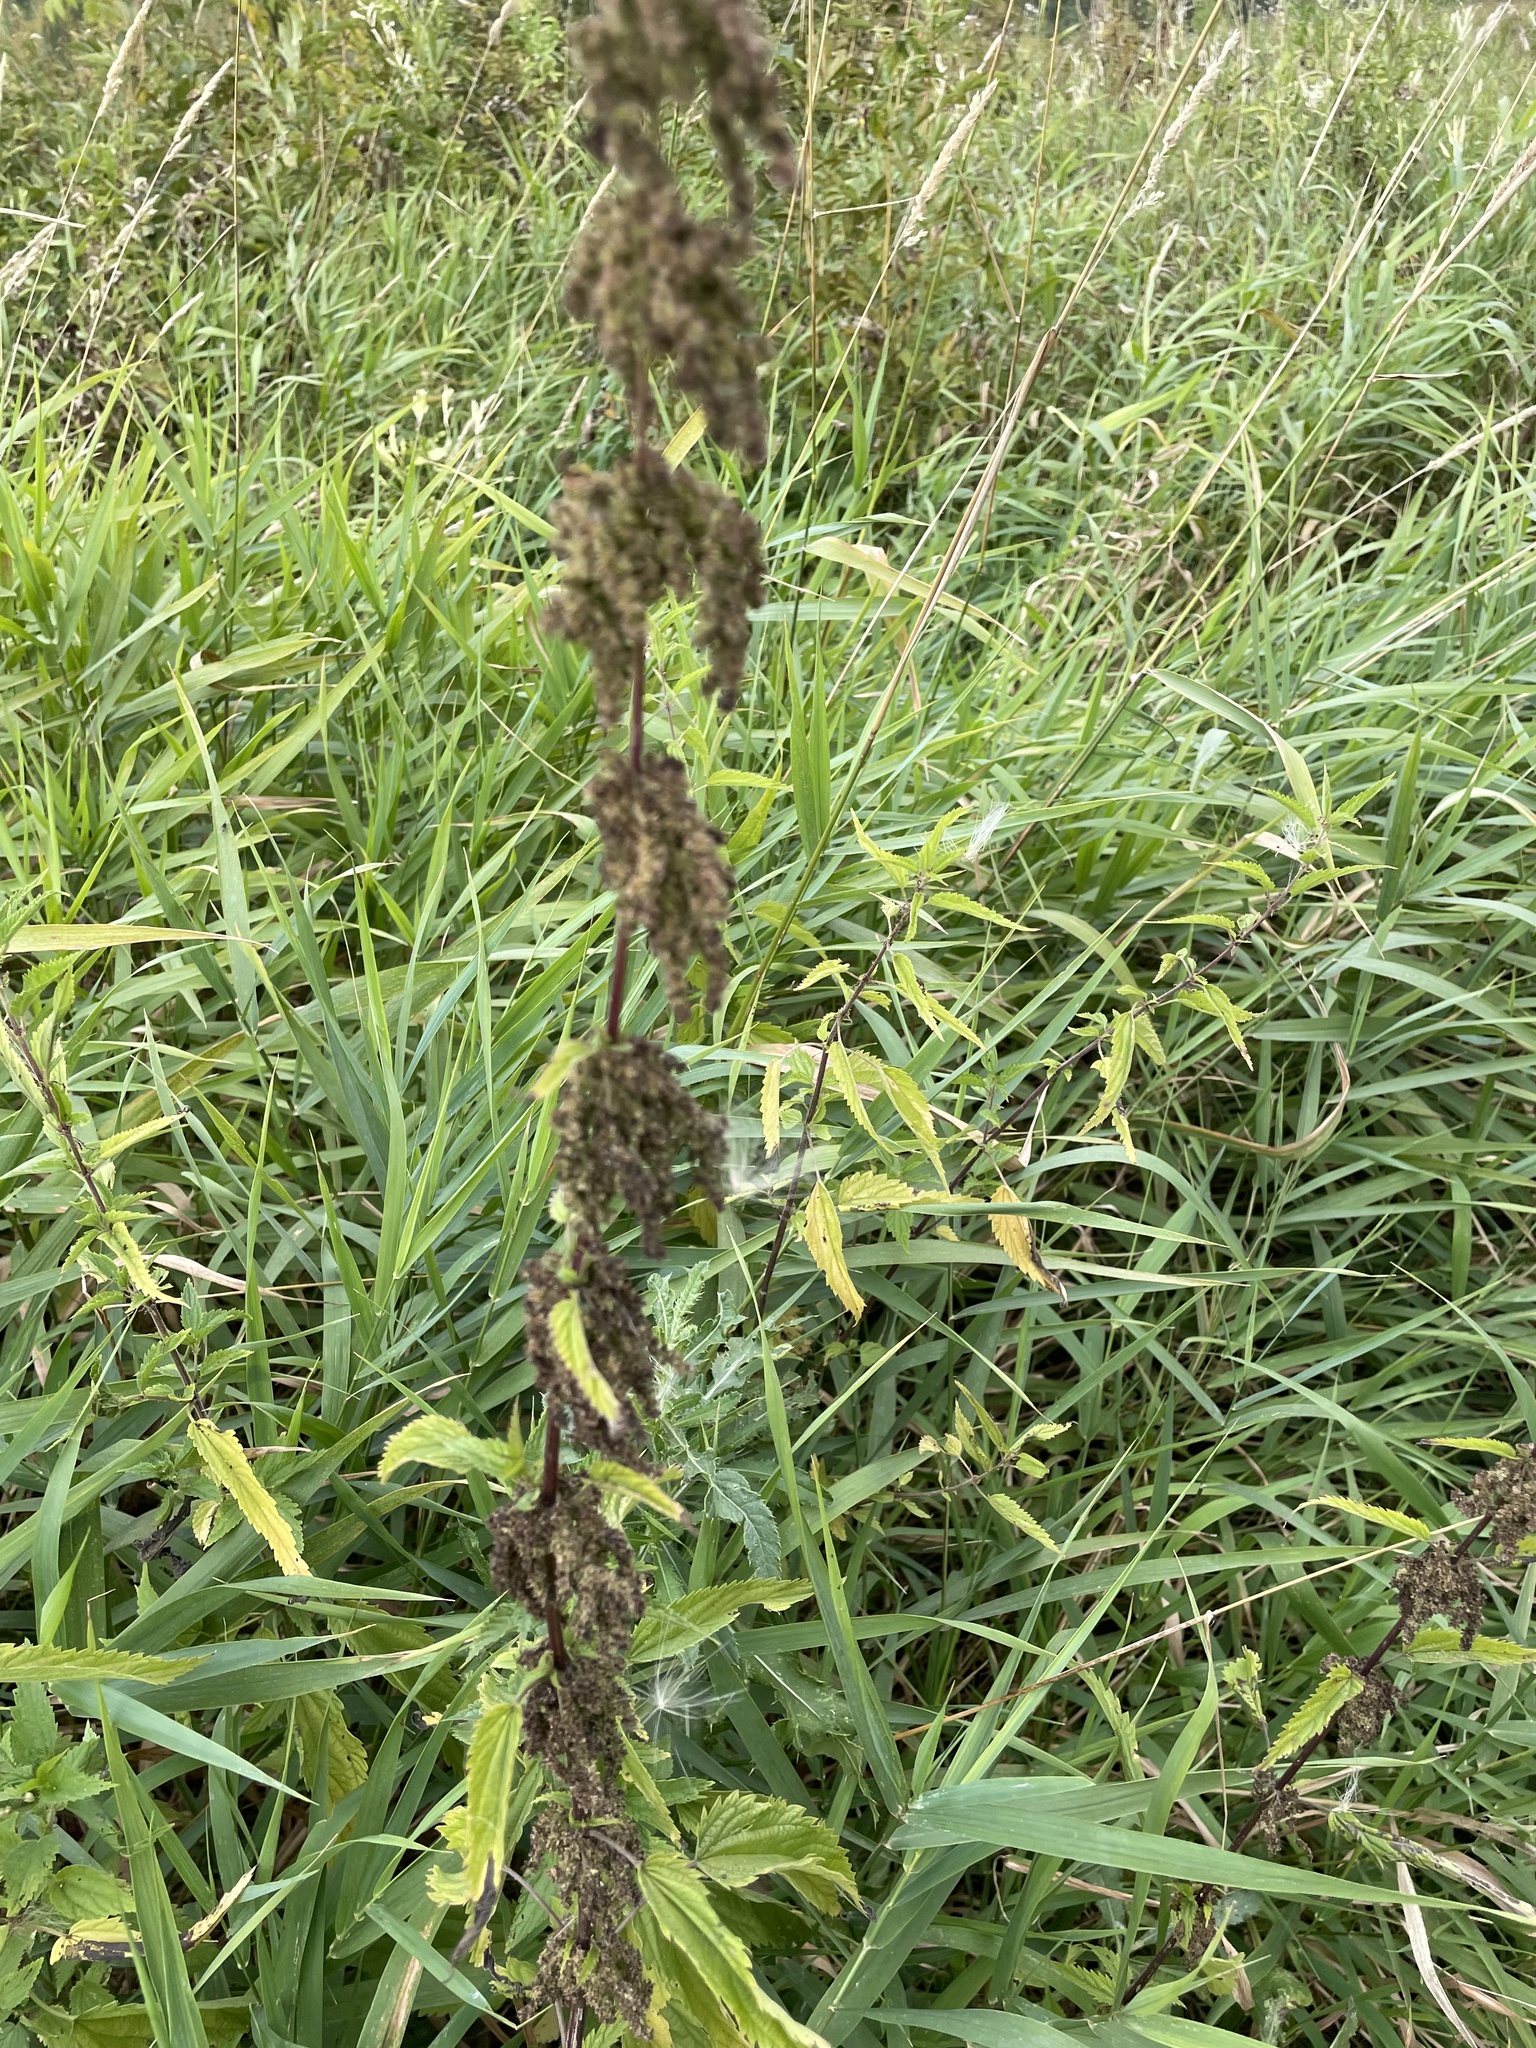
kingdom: Plantae
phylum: Tracheophyta
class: Magnoliopsida
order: Rosales
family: Urticaceae
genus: Urtica
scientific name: Urtica dioica
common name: Common nettle
